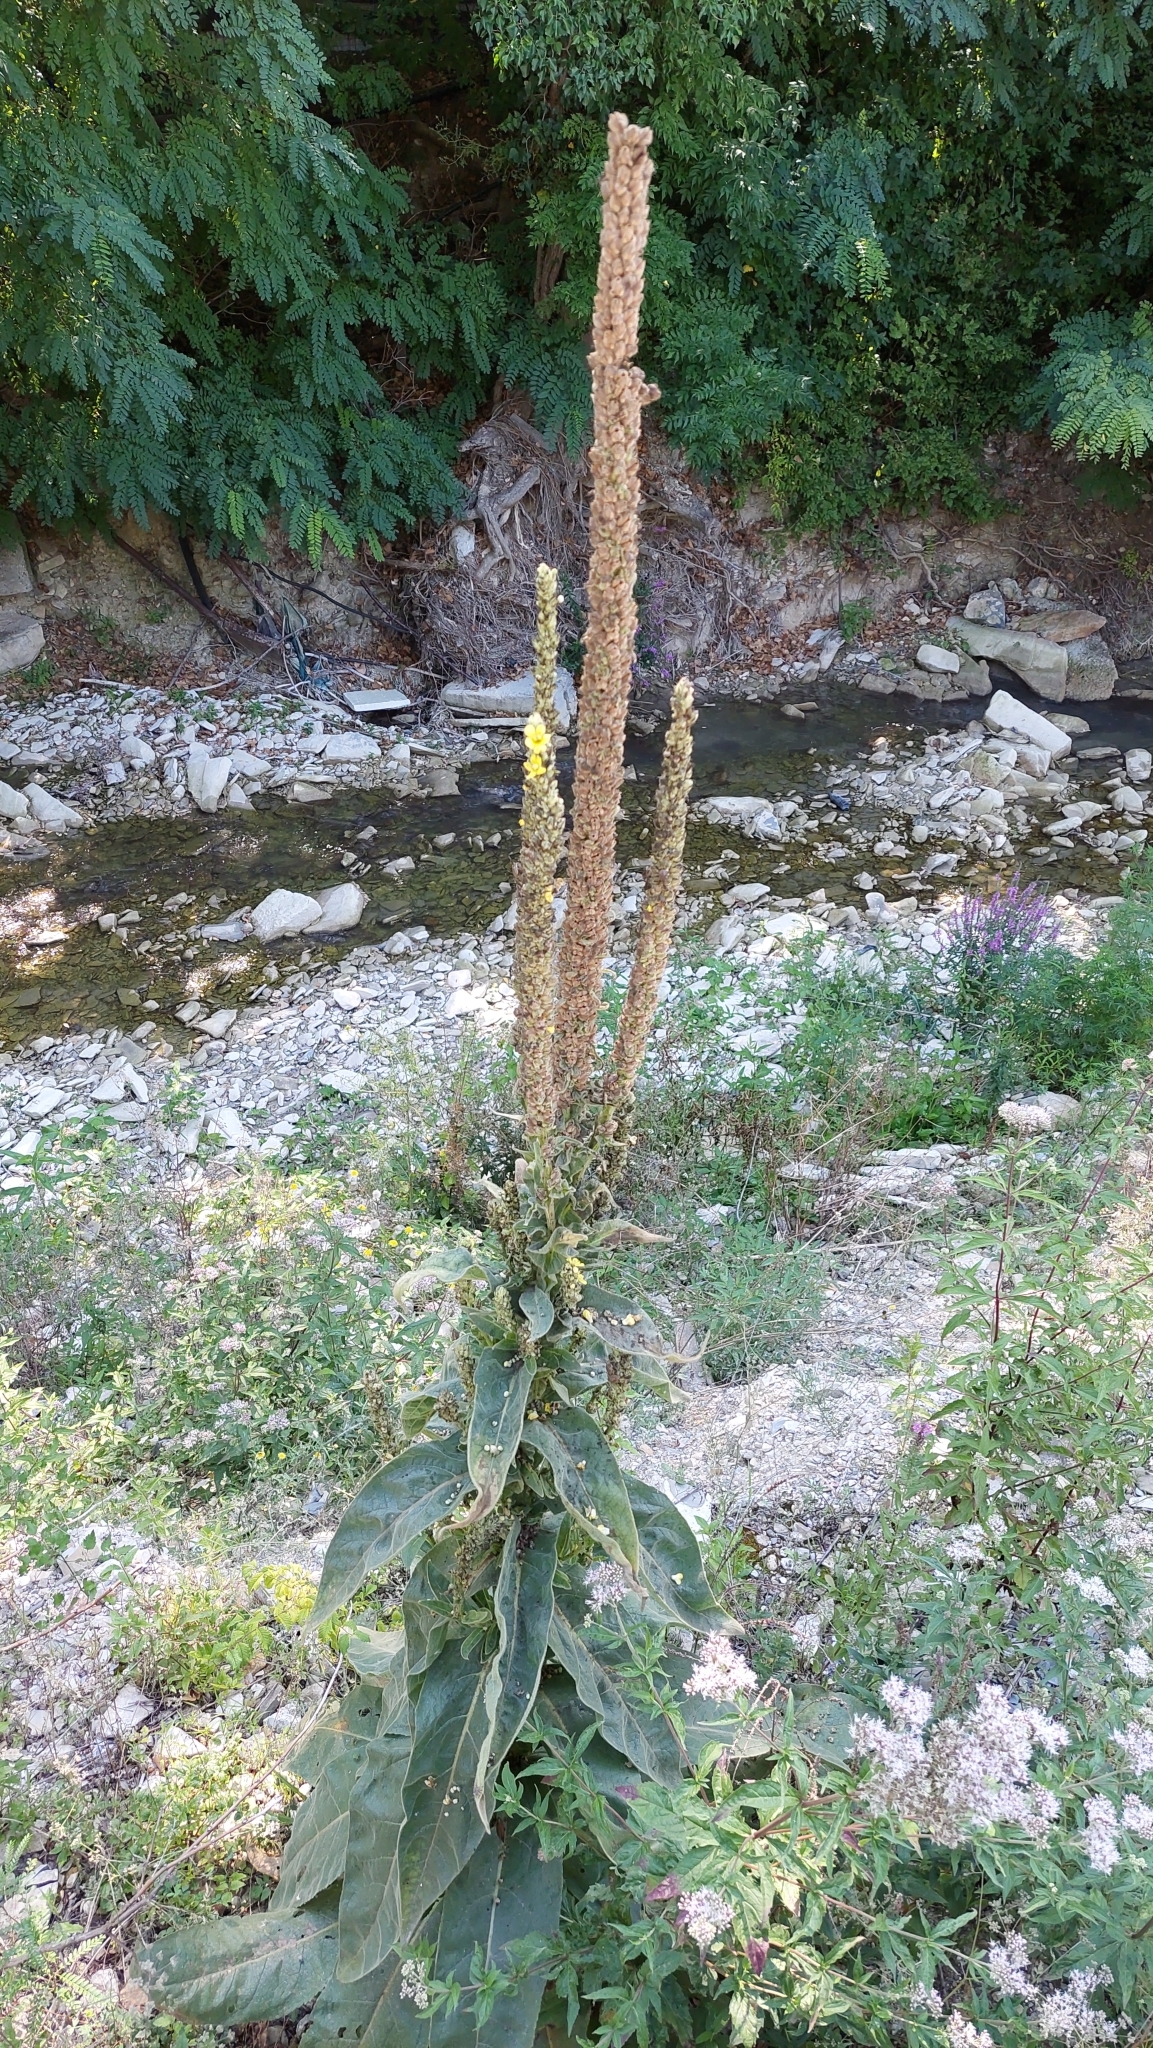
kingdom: Plantae
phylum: Tracheophyta
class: Magnoliopsida
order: Lamiales
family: Scrophulariaceae
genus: Verbascum
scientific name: Verbascum thapsus
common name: Common mullein
